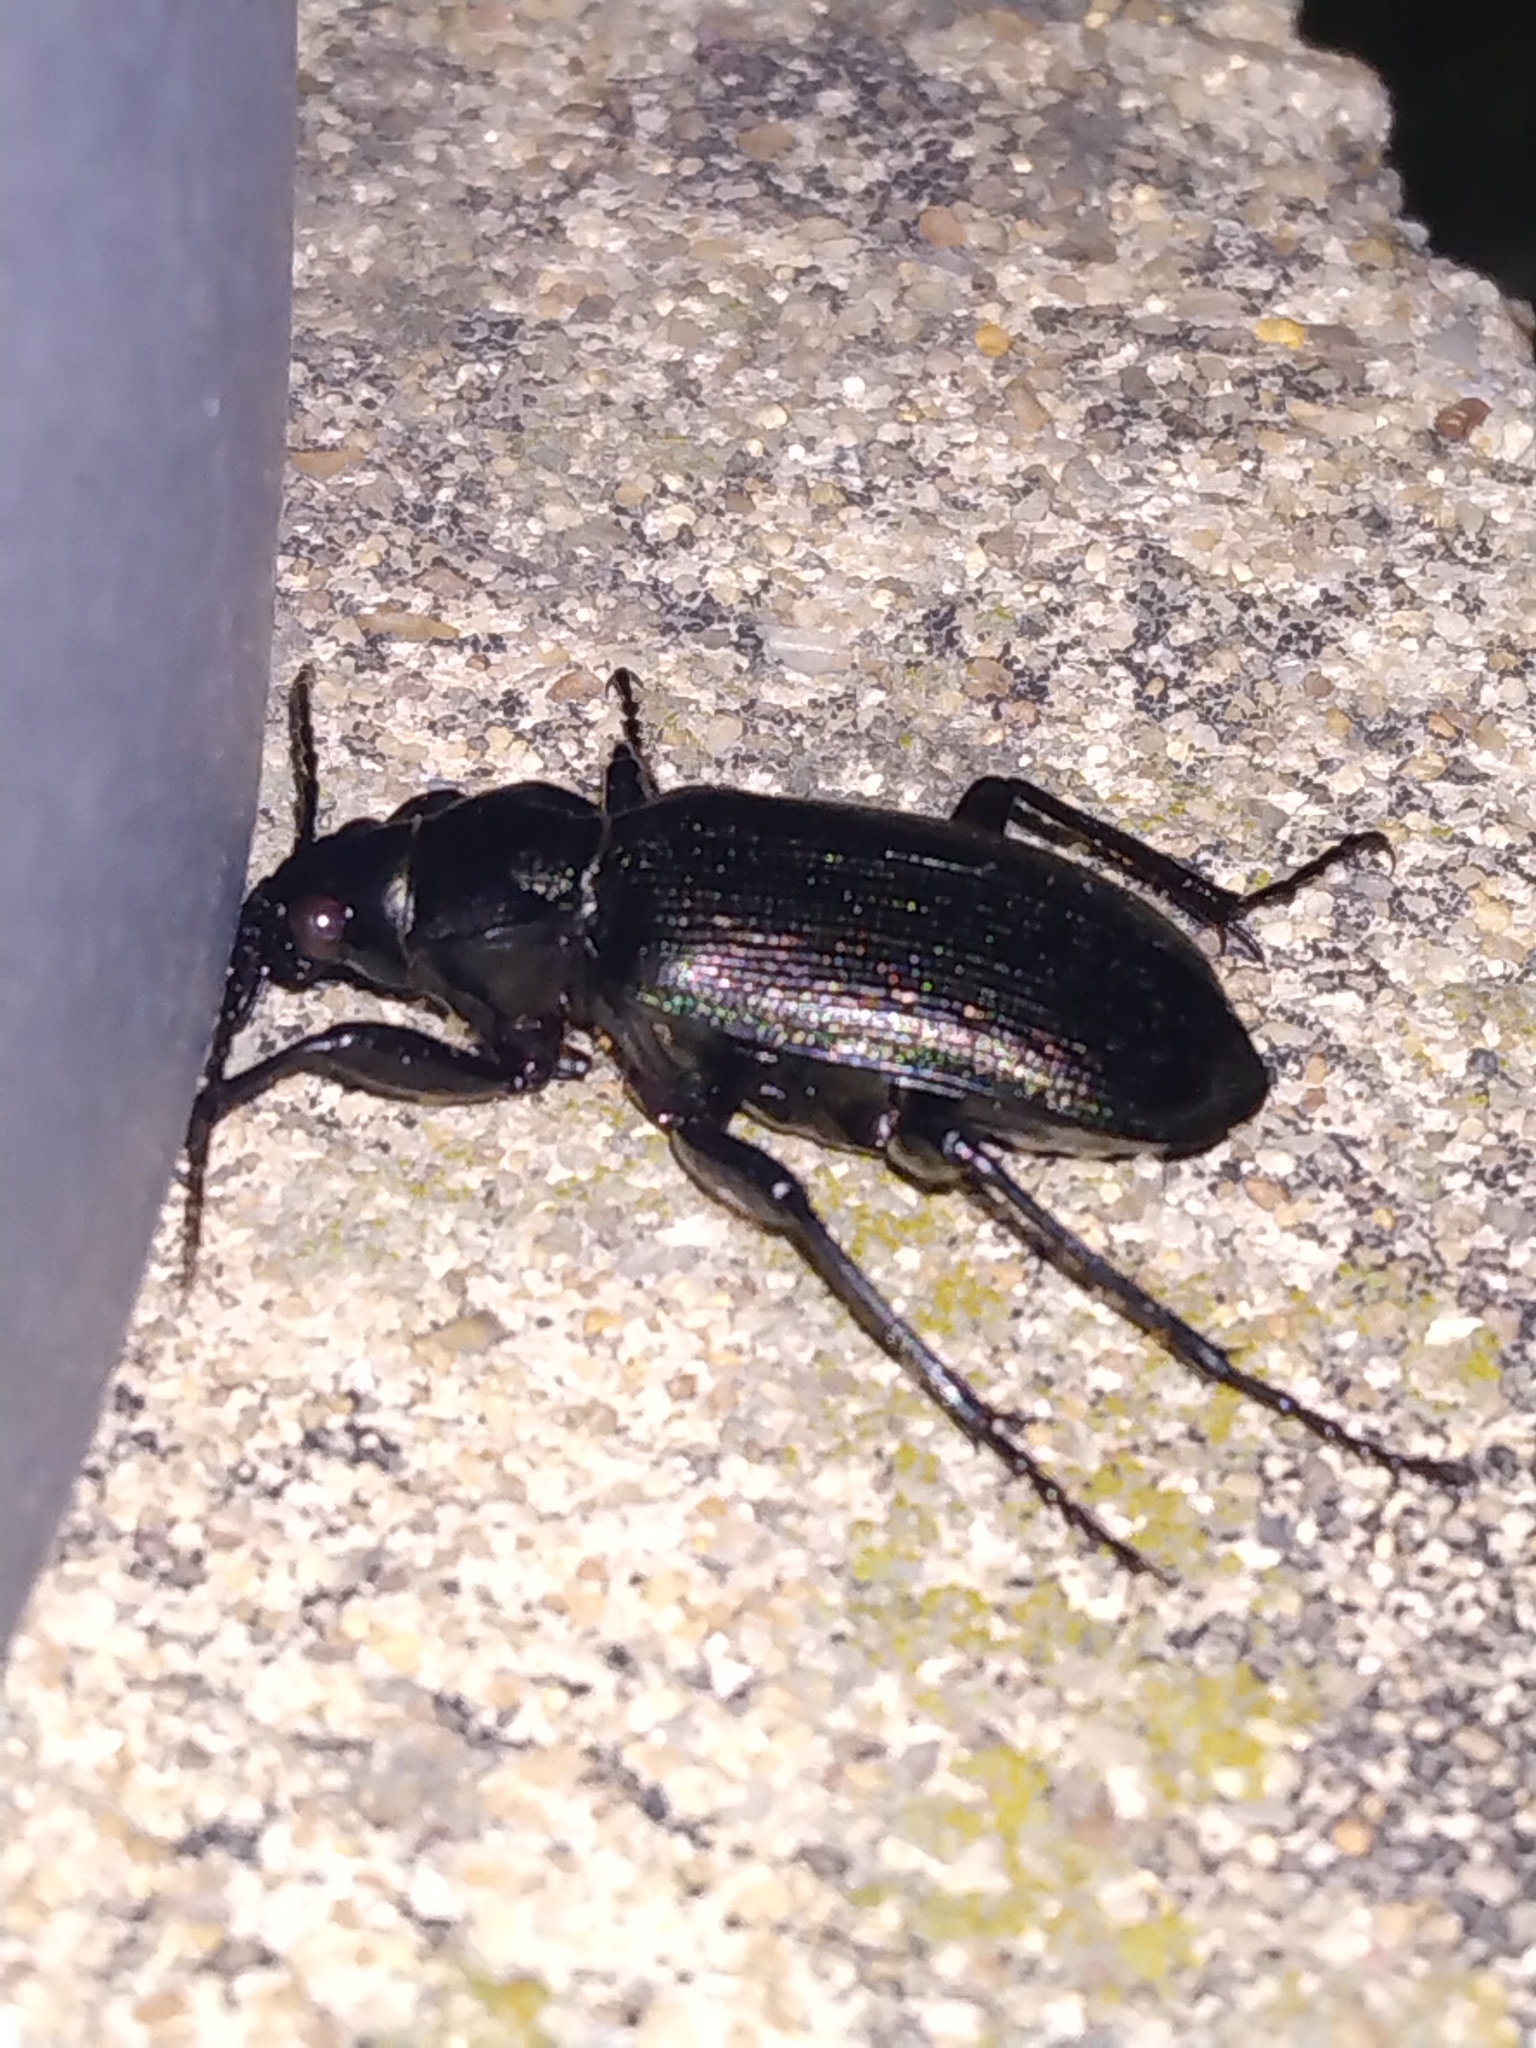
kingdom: Animalia
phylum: Arthropoda
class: Insecta
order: Coleoptera
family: Carabidae
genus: Calosoma
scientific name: Calosoma sayi
